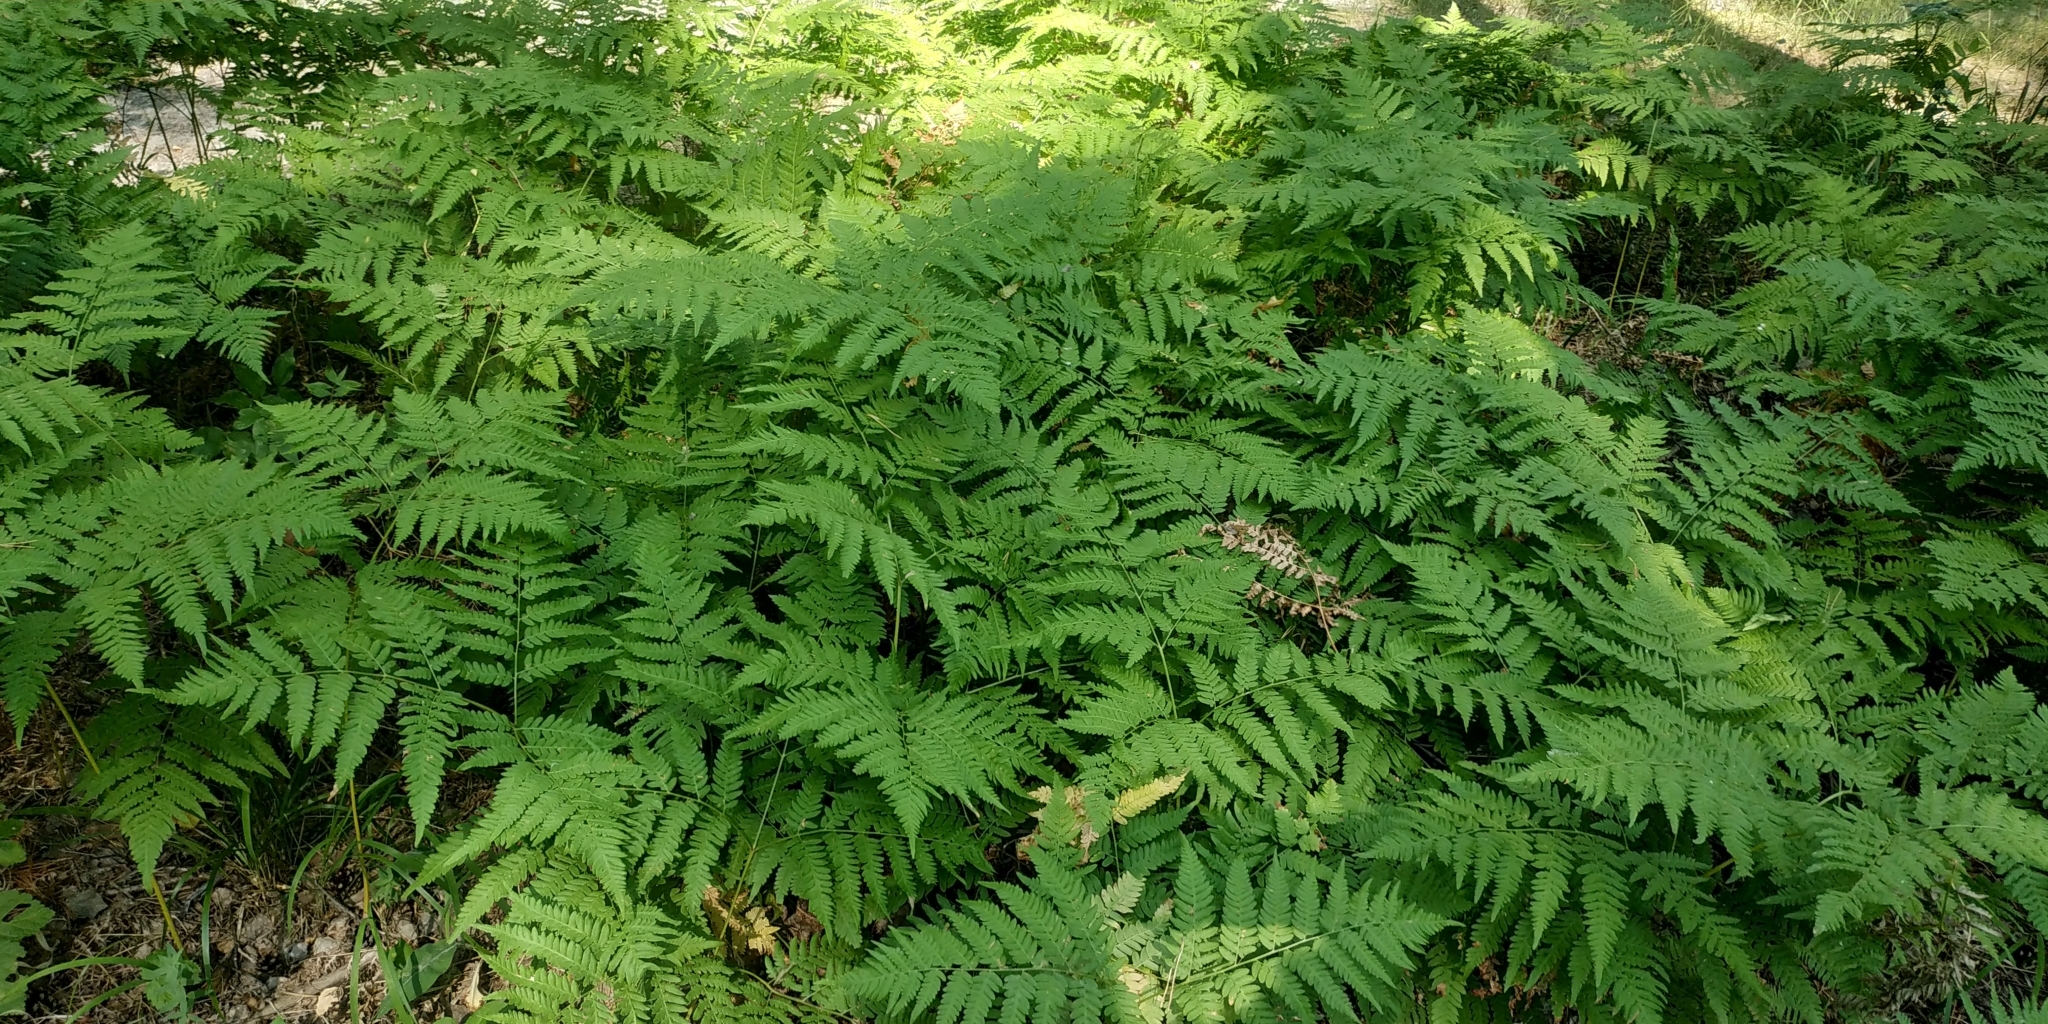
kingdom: Plantae
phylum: Tracheophyta
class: Polypodiopsida
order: Polypodiales
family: Dennstaedtiaceae
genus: Pteridium
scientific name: Pteridium aquilinum
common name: Bracken
